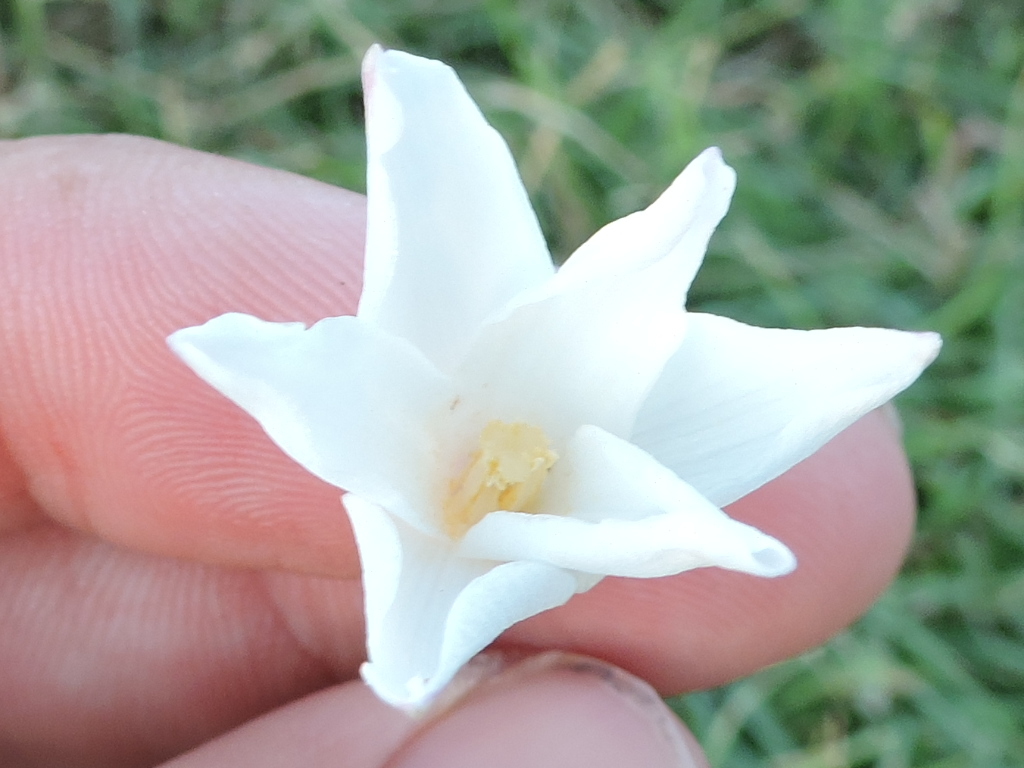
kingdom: Plantae
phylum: Tracheophyta
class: Liliopsida
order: Asparagales
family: Amaryllidaceae
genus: Zephyranthes
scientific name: Zephyranthes chlorosolen
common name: Evening rain-lily
